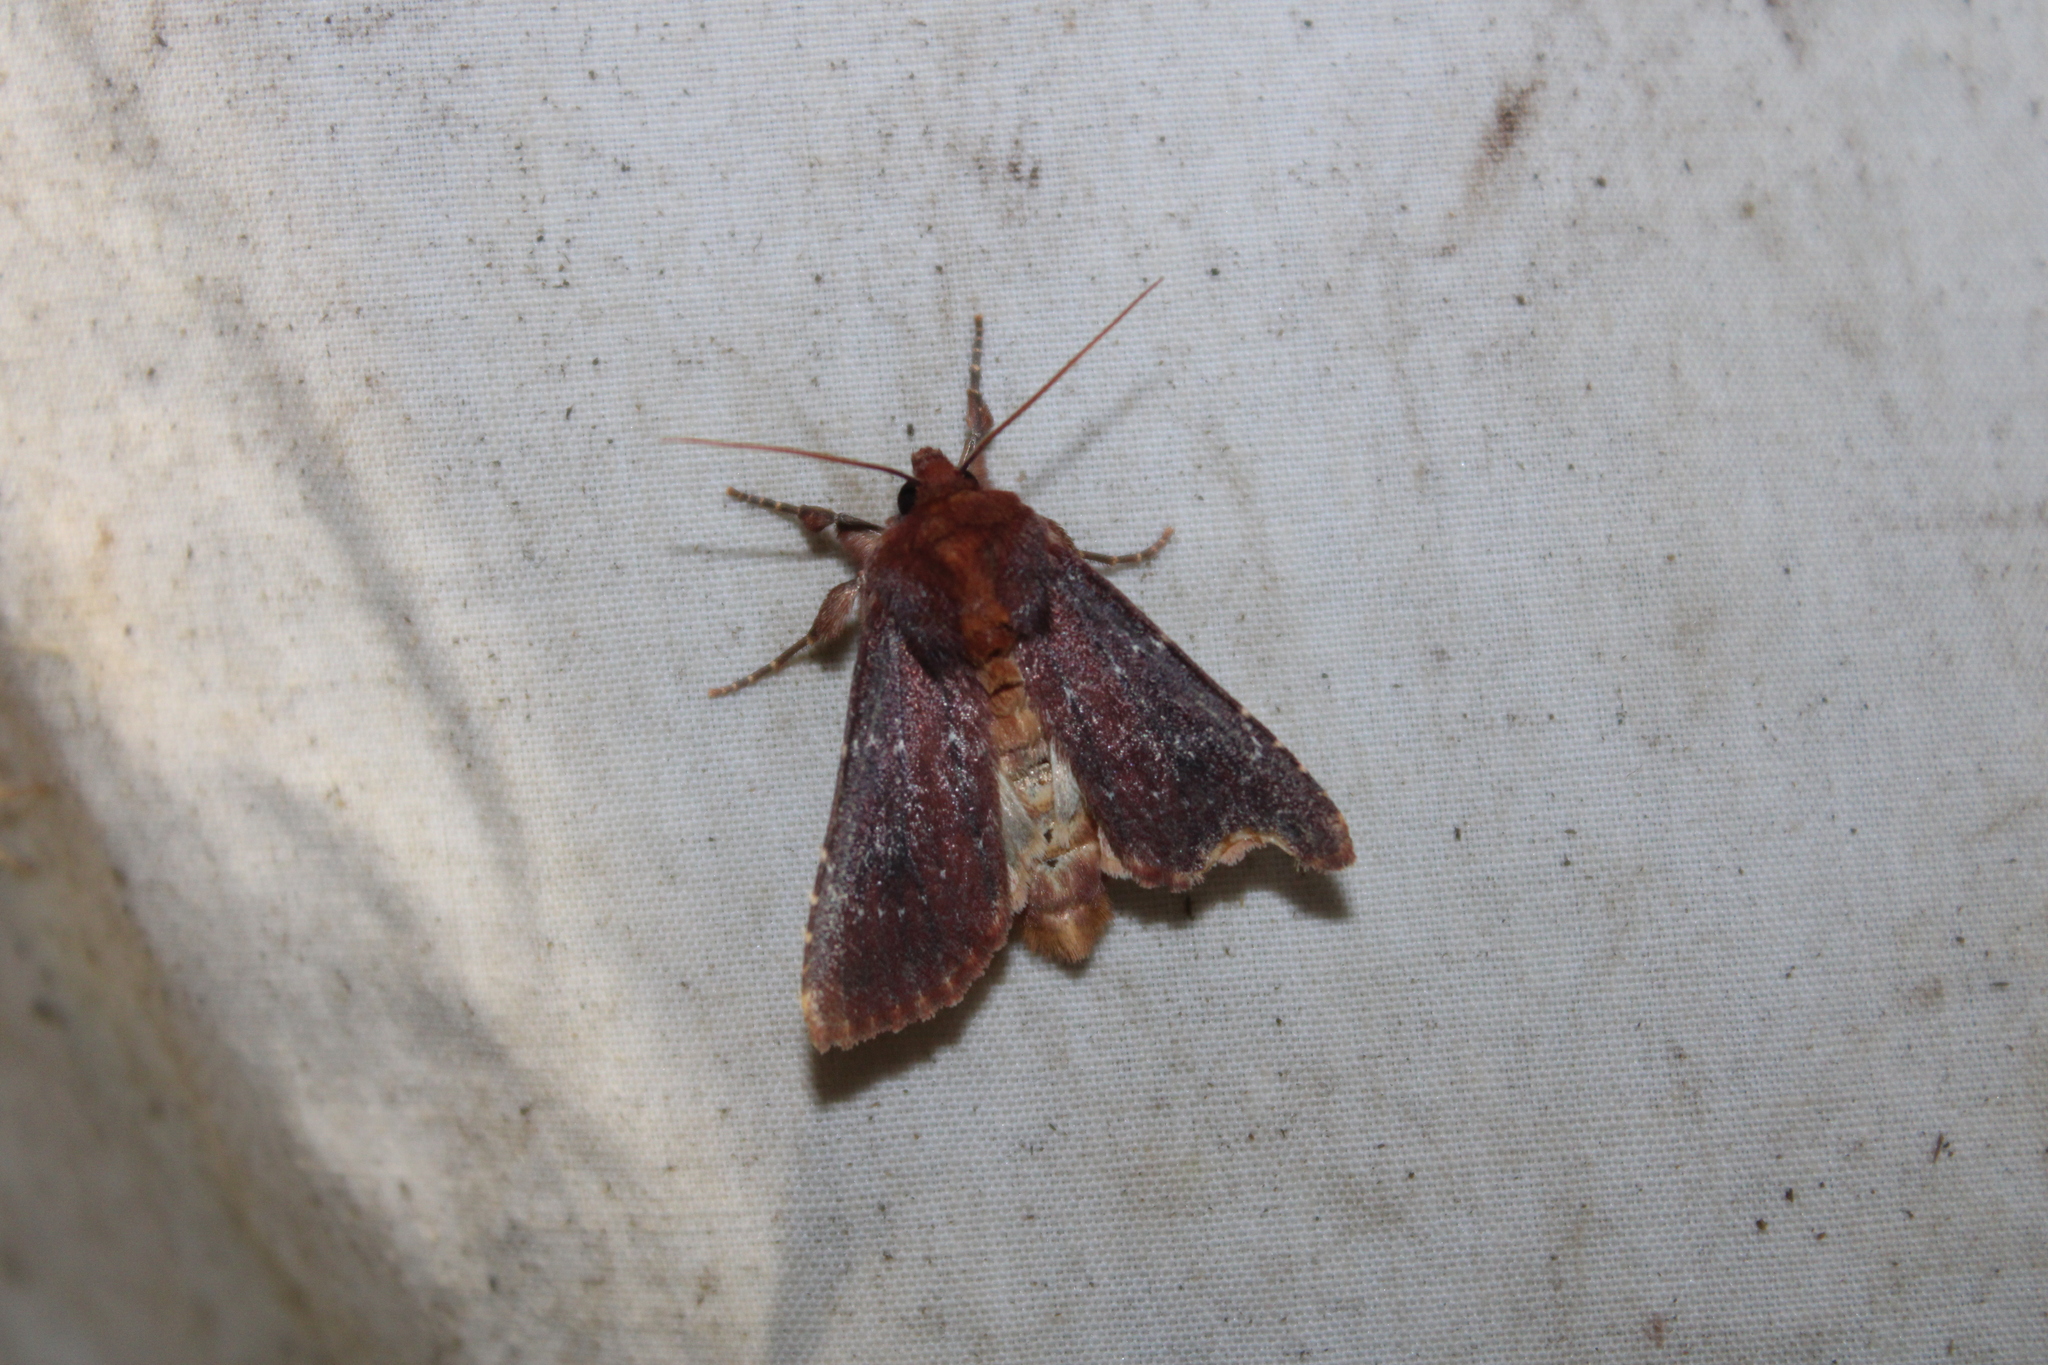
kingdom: Animalia
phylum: Arthropoda
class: Insecta
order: Lepidoptera
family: Noctuidae
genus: Sideridis
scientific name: Sideridis maryx
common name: Maroonwing moth
